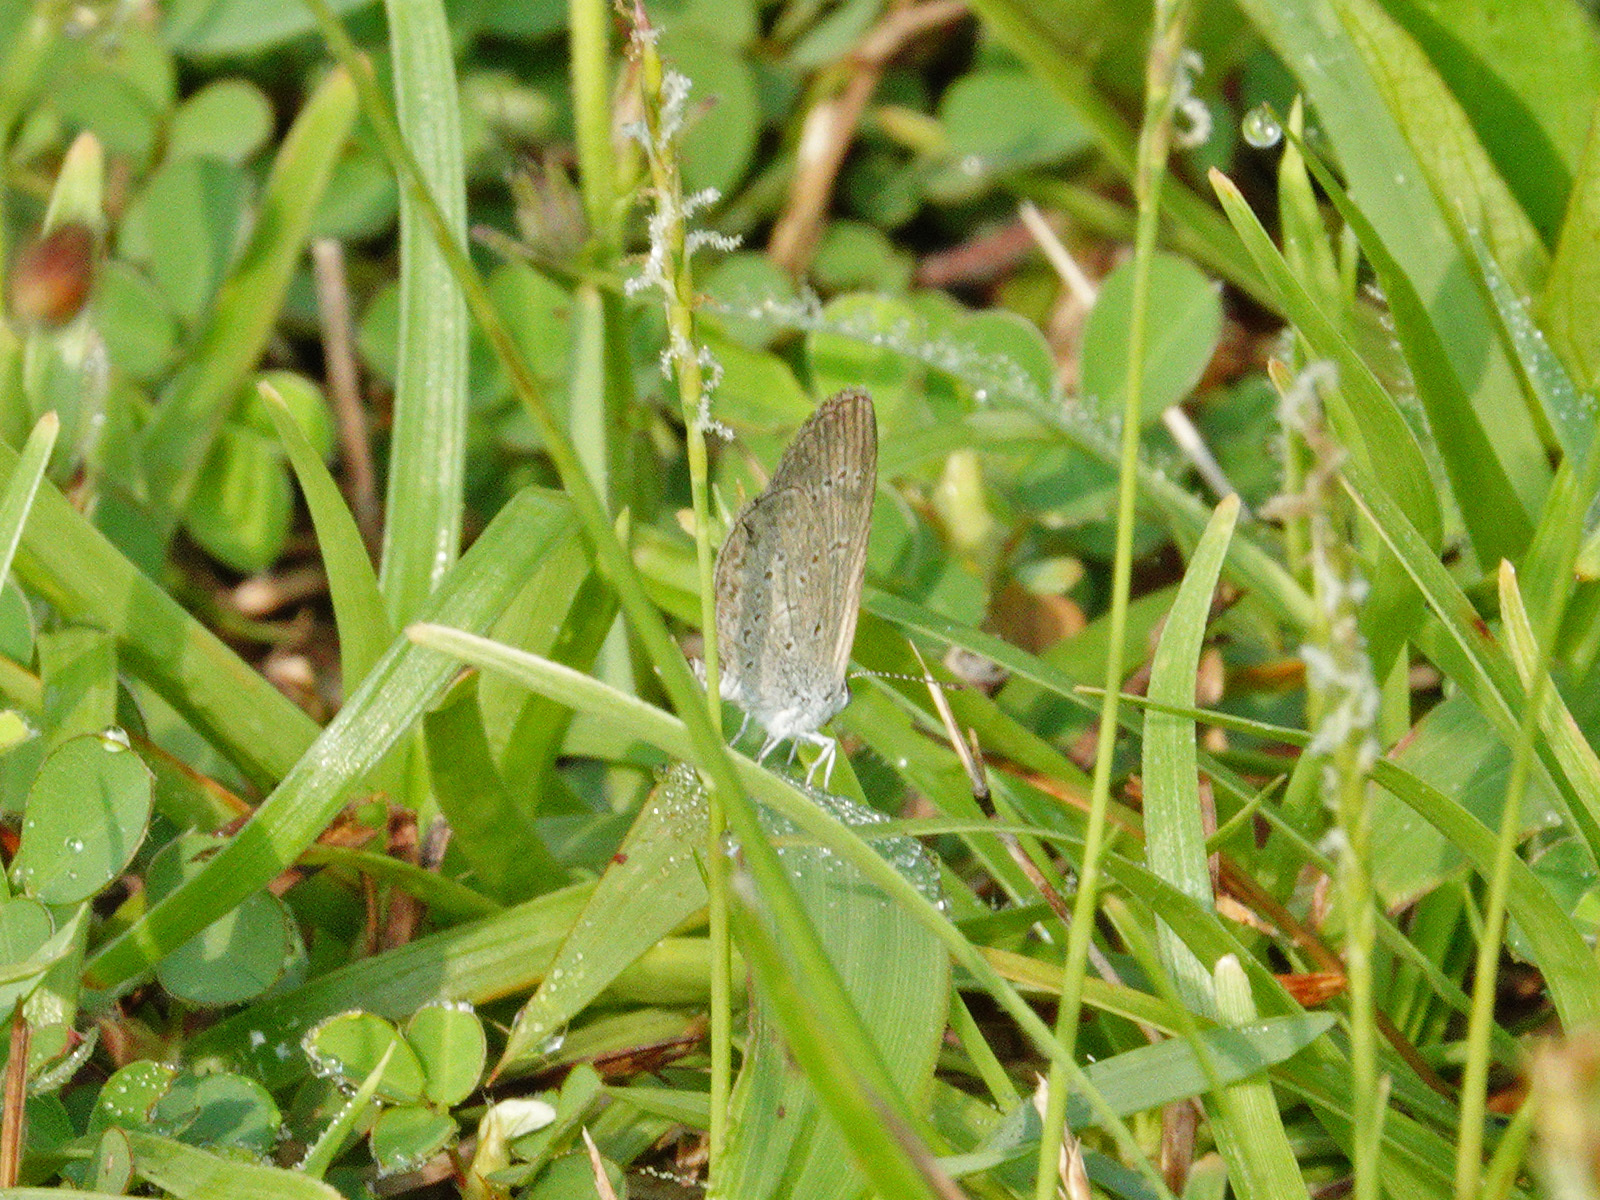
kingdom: Animalia
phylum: Arthropoda
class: Insecta
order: Lepidoptera
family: Lycaenidae
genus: Zizina
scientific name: Zizina otis
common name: Lesser grass blue
